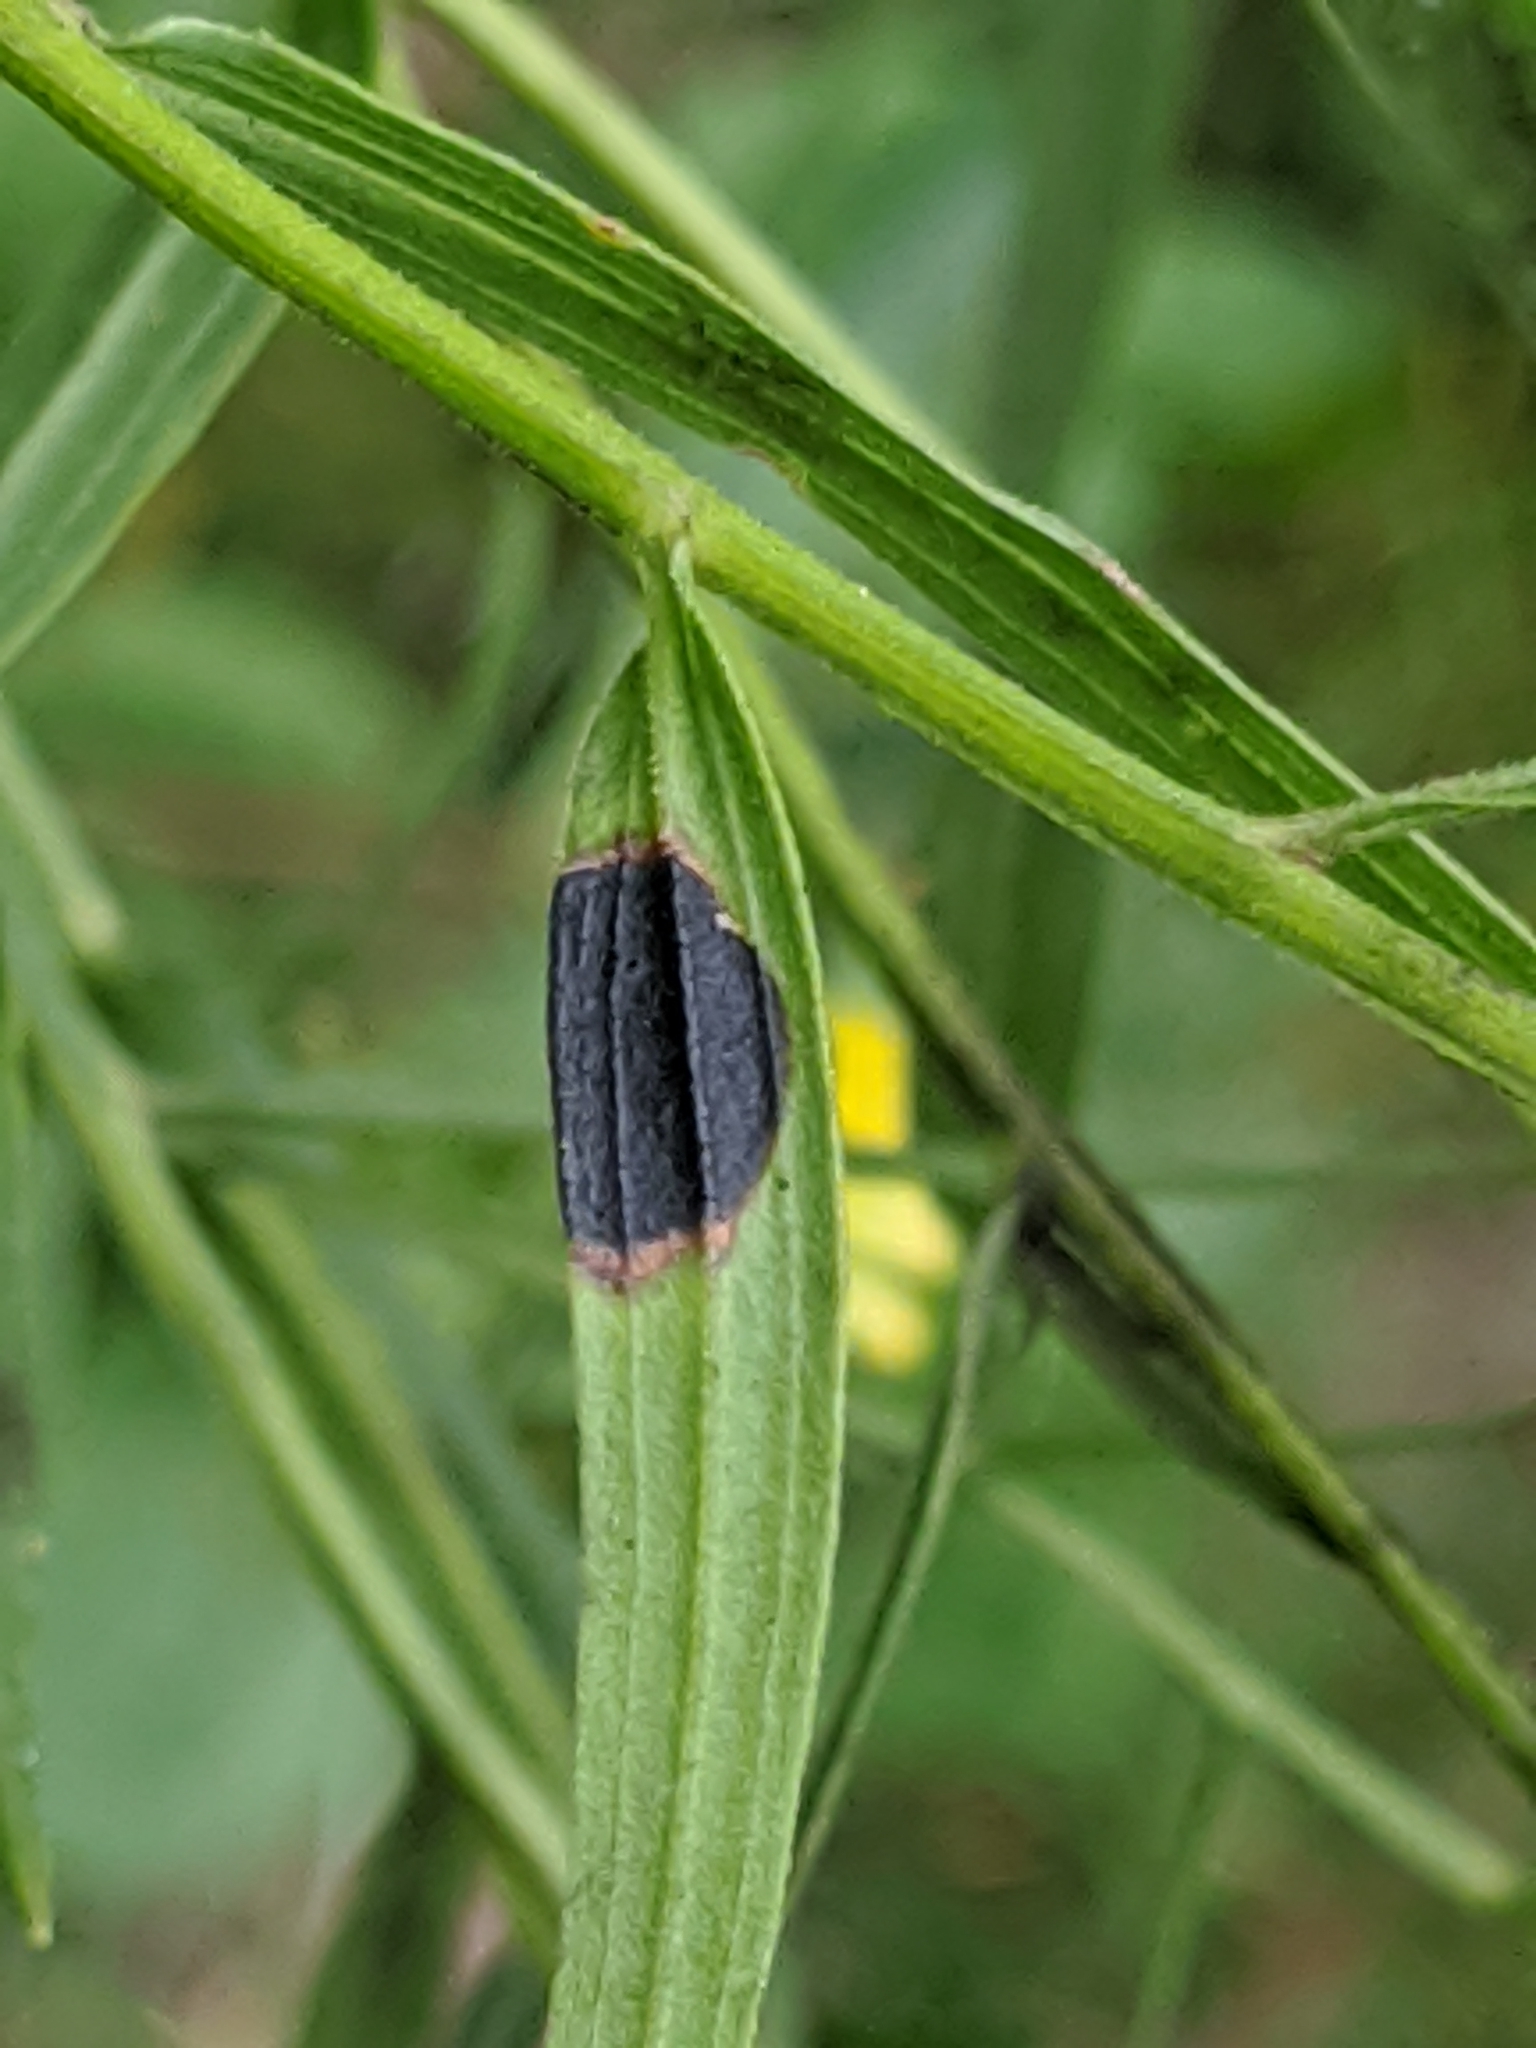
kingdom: Animalia
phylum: Arthropoda
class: Insecta
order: Diptera
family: Cecidomyiidae
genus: Asteromyia
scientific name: Asteromyia euthamiae
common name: Euthamia leaf gall midge
